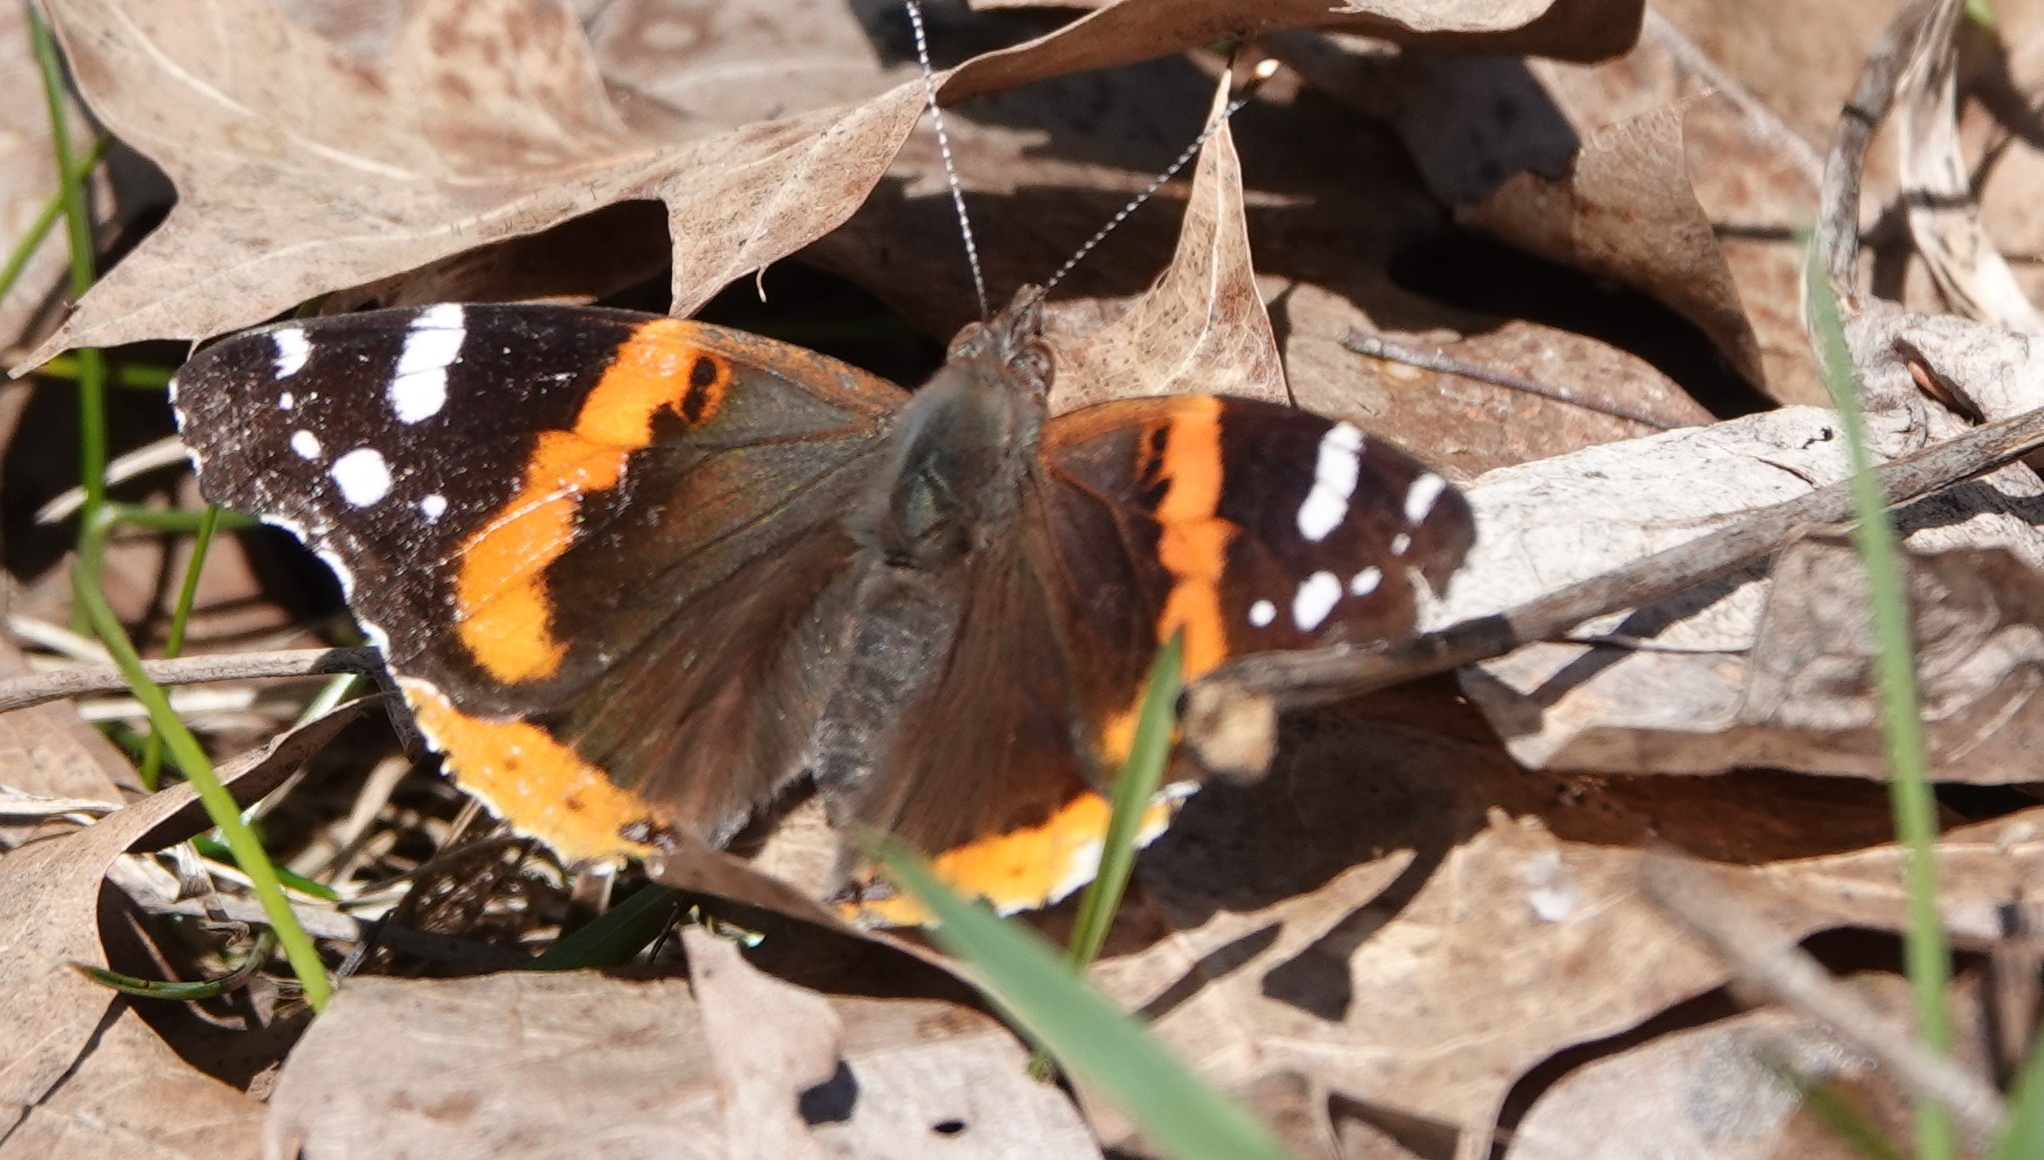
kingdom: Animalia
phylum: Arthropoda
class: Insecta
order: Lepidoptera
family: Nymphalidae
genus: Vanessa
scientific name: Vanessa atalanta
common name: Red admiral
